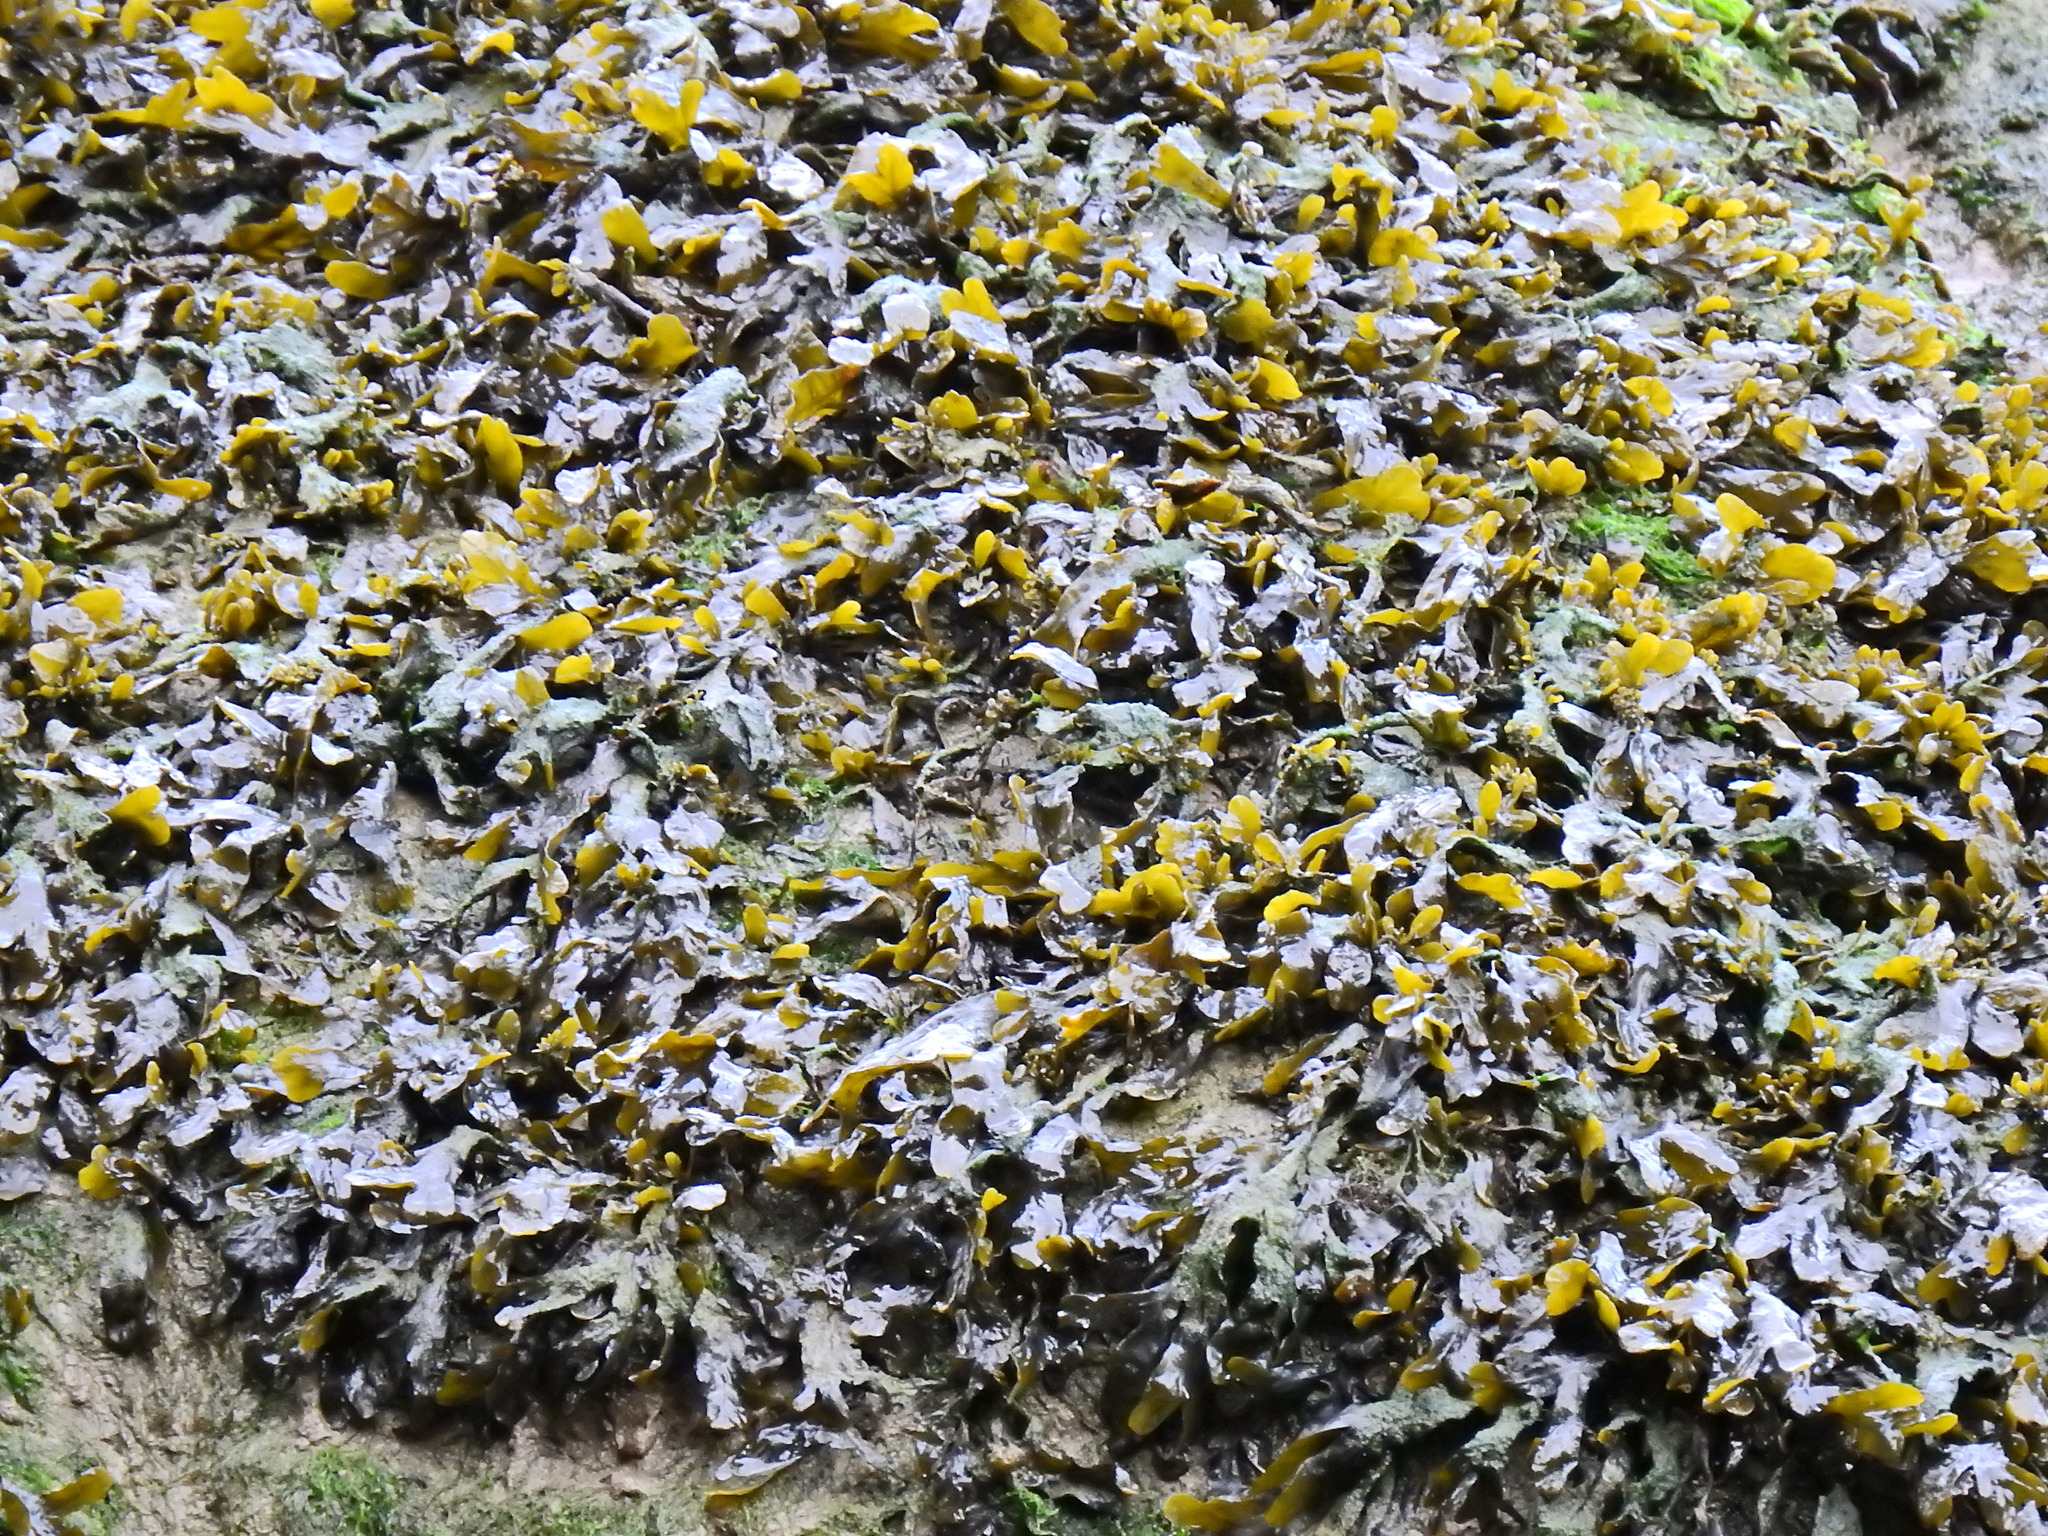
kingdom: Chromista
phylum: Ochrophyta
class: Phaeophyceae
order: Fucales
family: Fucaceae
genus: Fucus
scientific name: Fucus spiralis
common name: Spiral wrack
